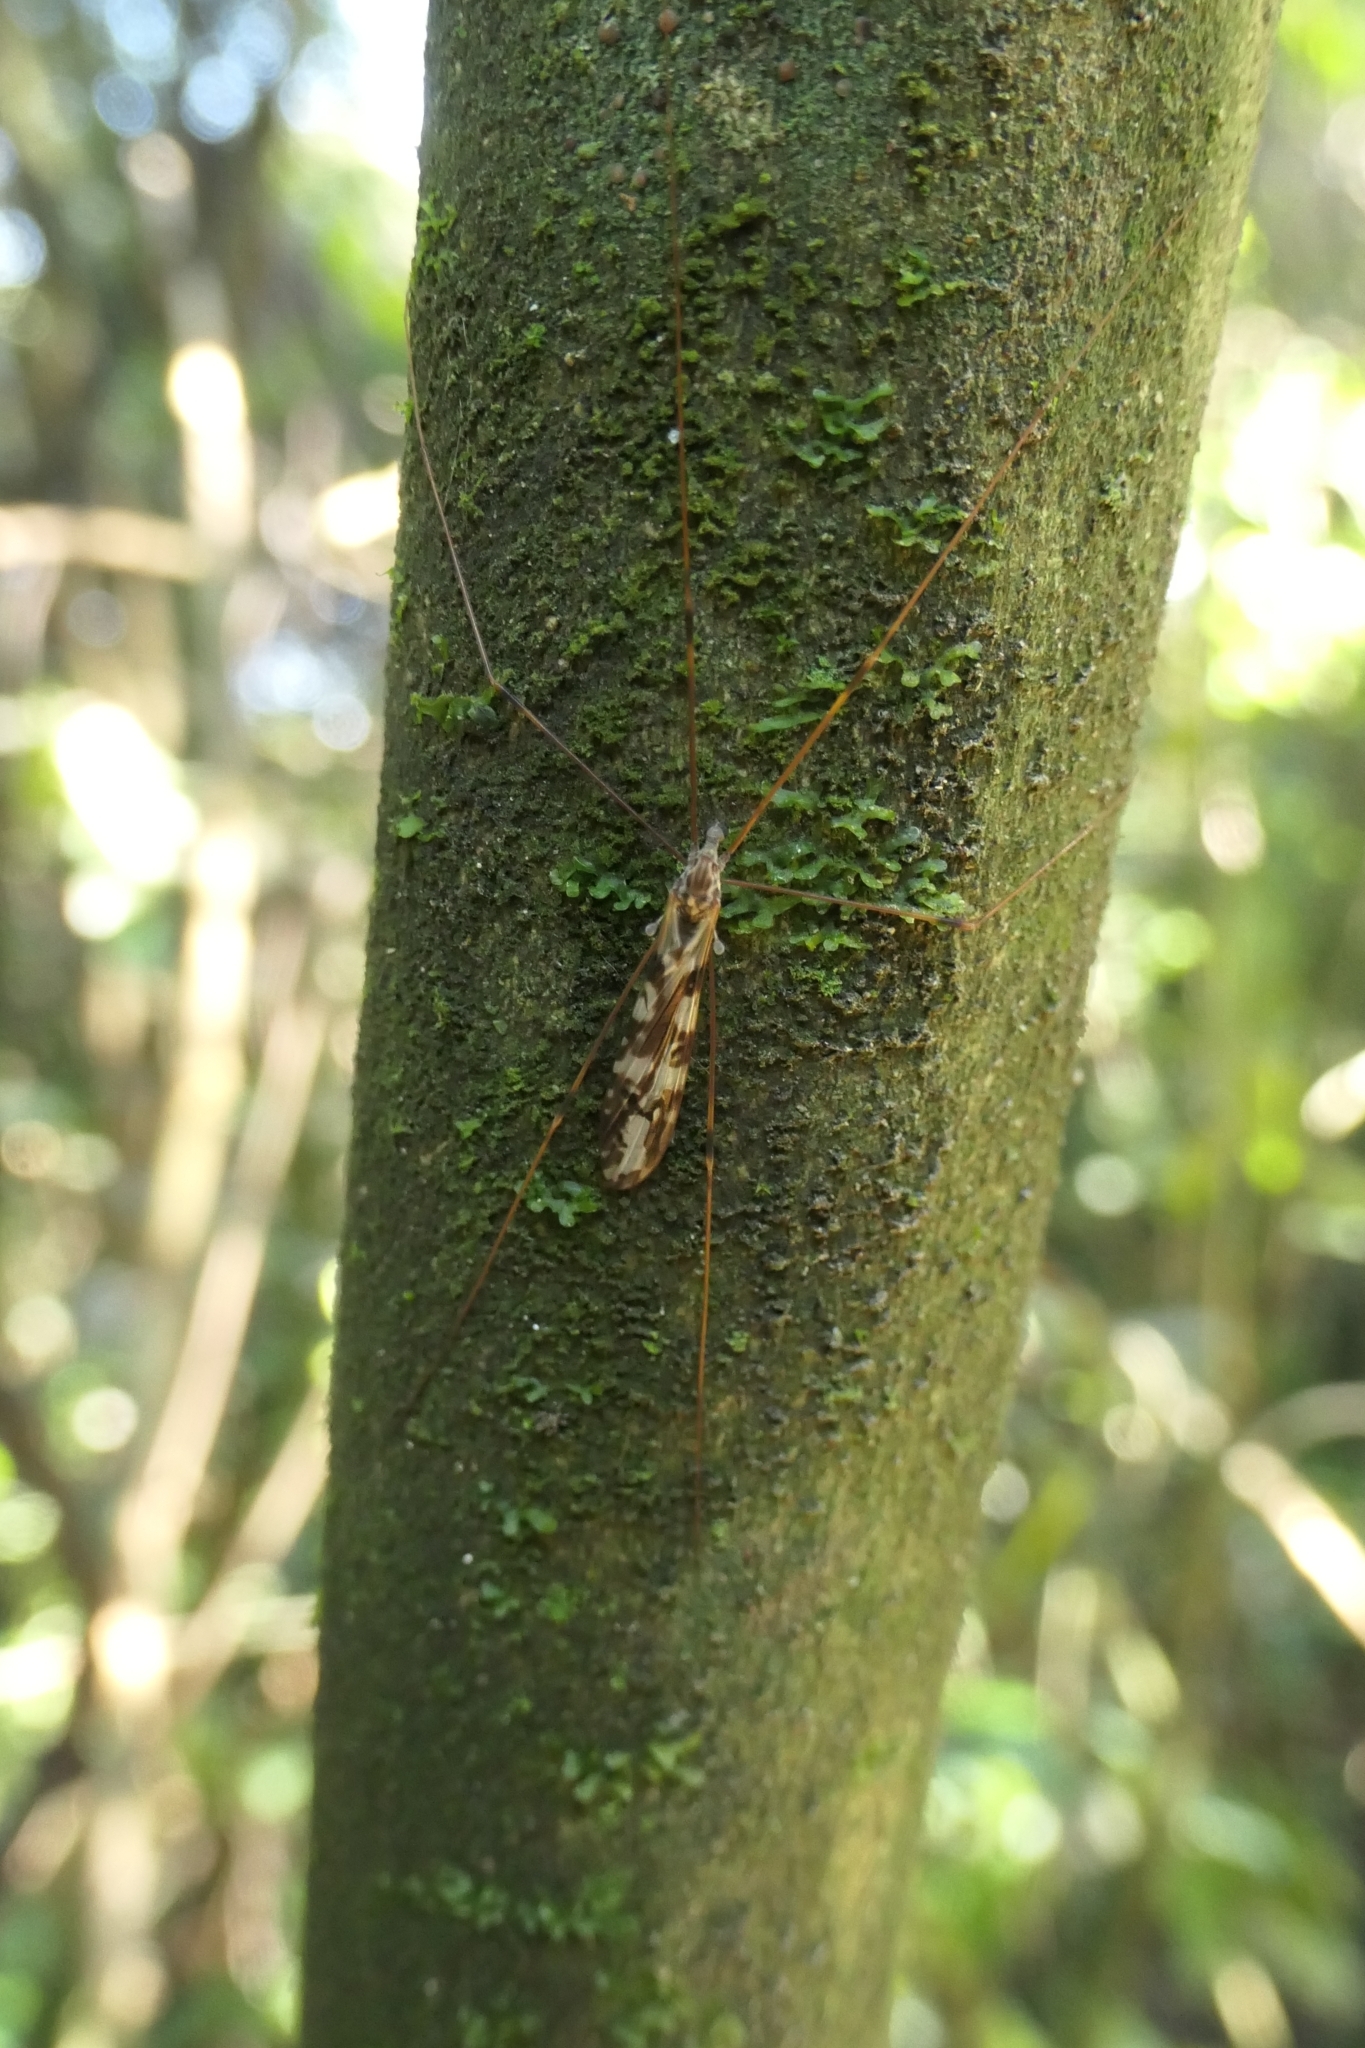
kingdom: Animalia
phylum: Arthropoda
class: Insecta
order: Diptera
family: Limoniidae
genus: Discobola
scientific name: Discobola dohrni
